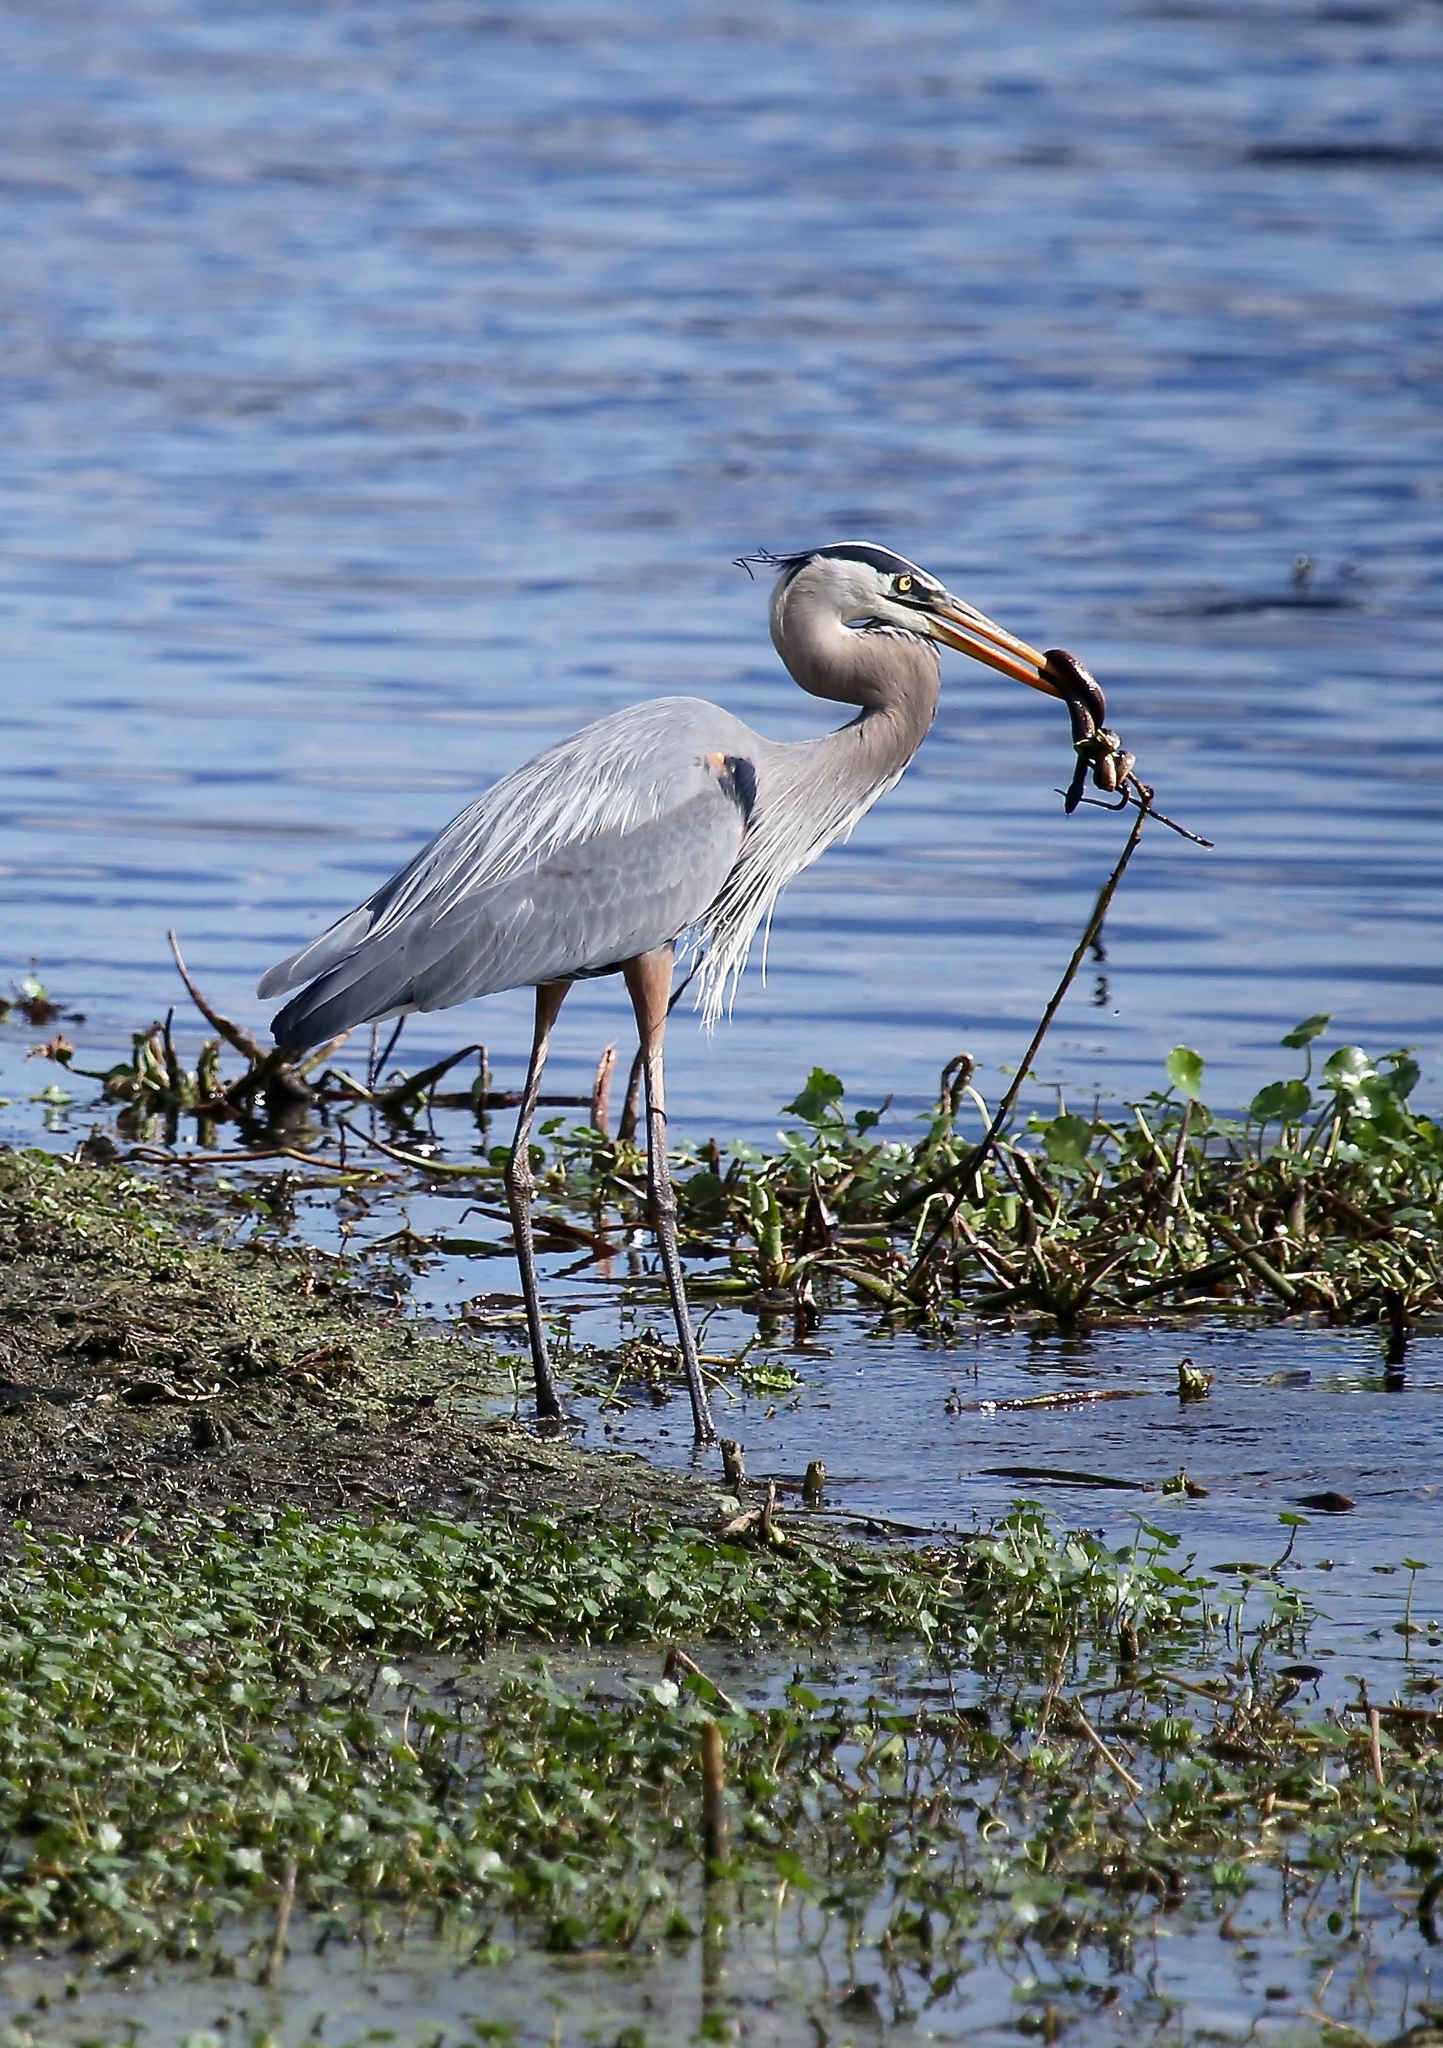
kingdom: Animalia
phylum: Chordata
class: Aves
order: Pelecaniformes
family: Ardeidae
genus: Ardea
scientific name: Ardea herodias
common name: Great blue heron
